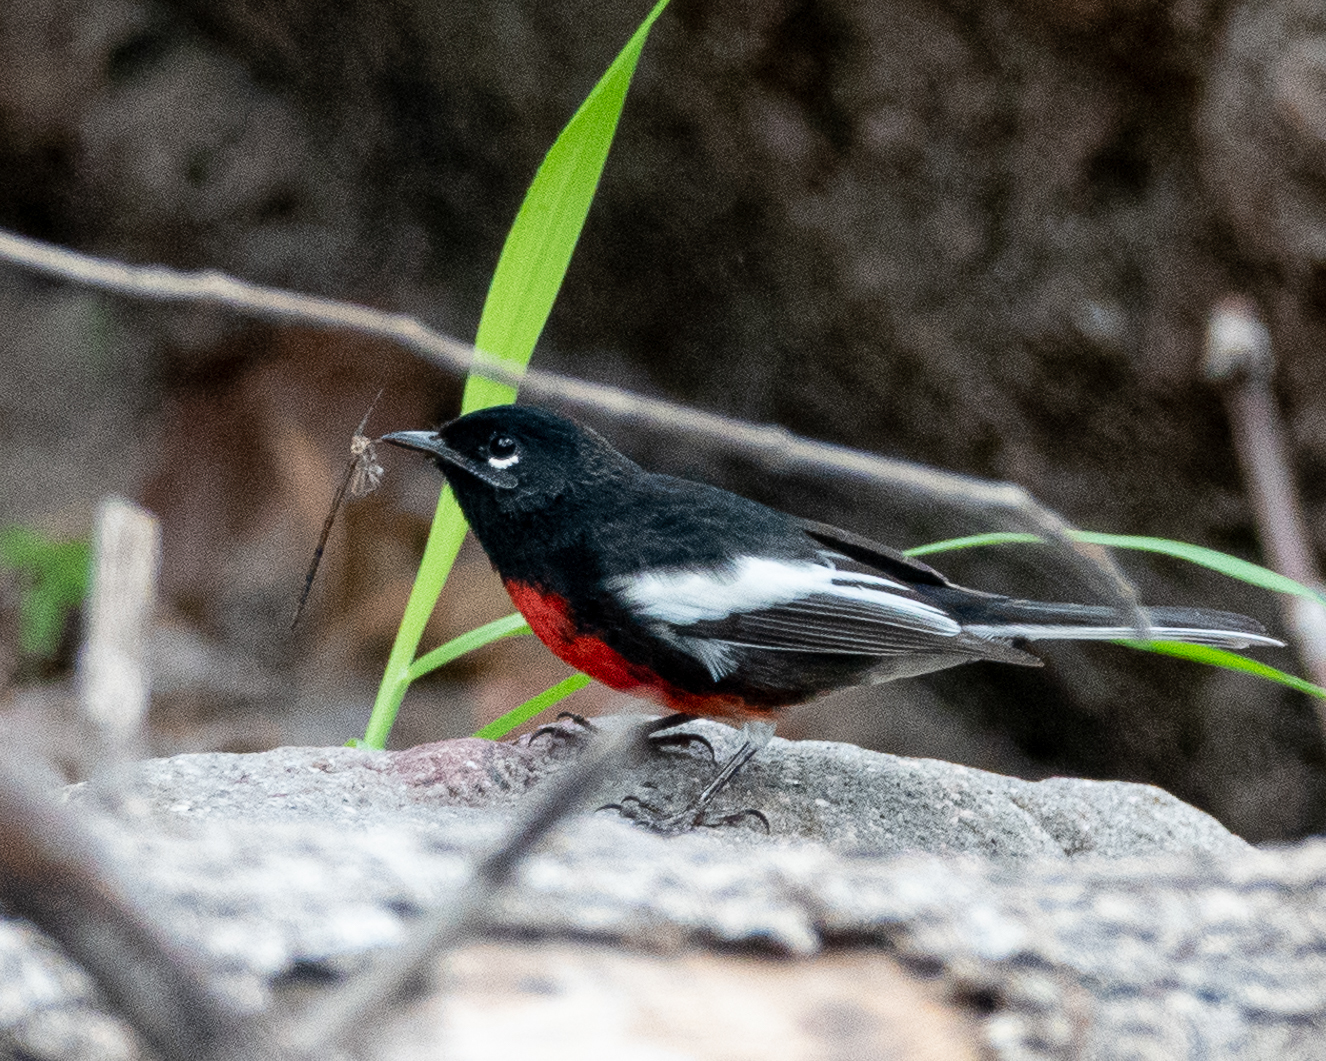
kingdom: Animalia
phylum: Chordata
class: Aves
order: Passeriformes
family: Parulidae
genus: Myioborus
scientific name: Myioborus pictus
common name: Painted whitestart
